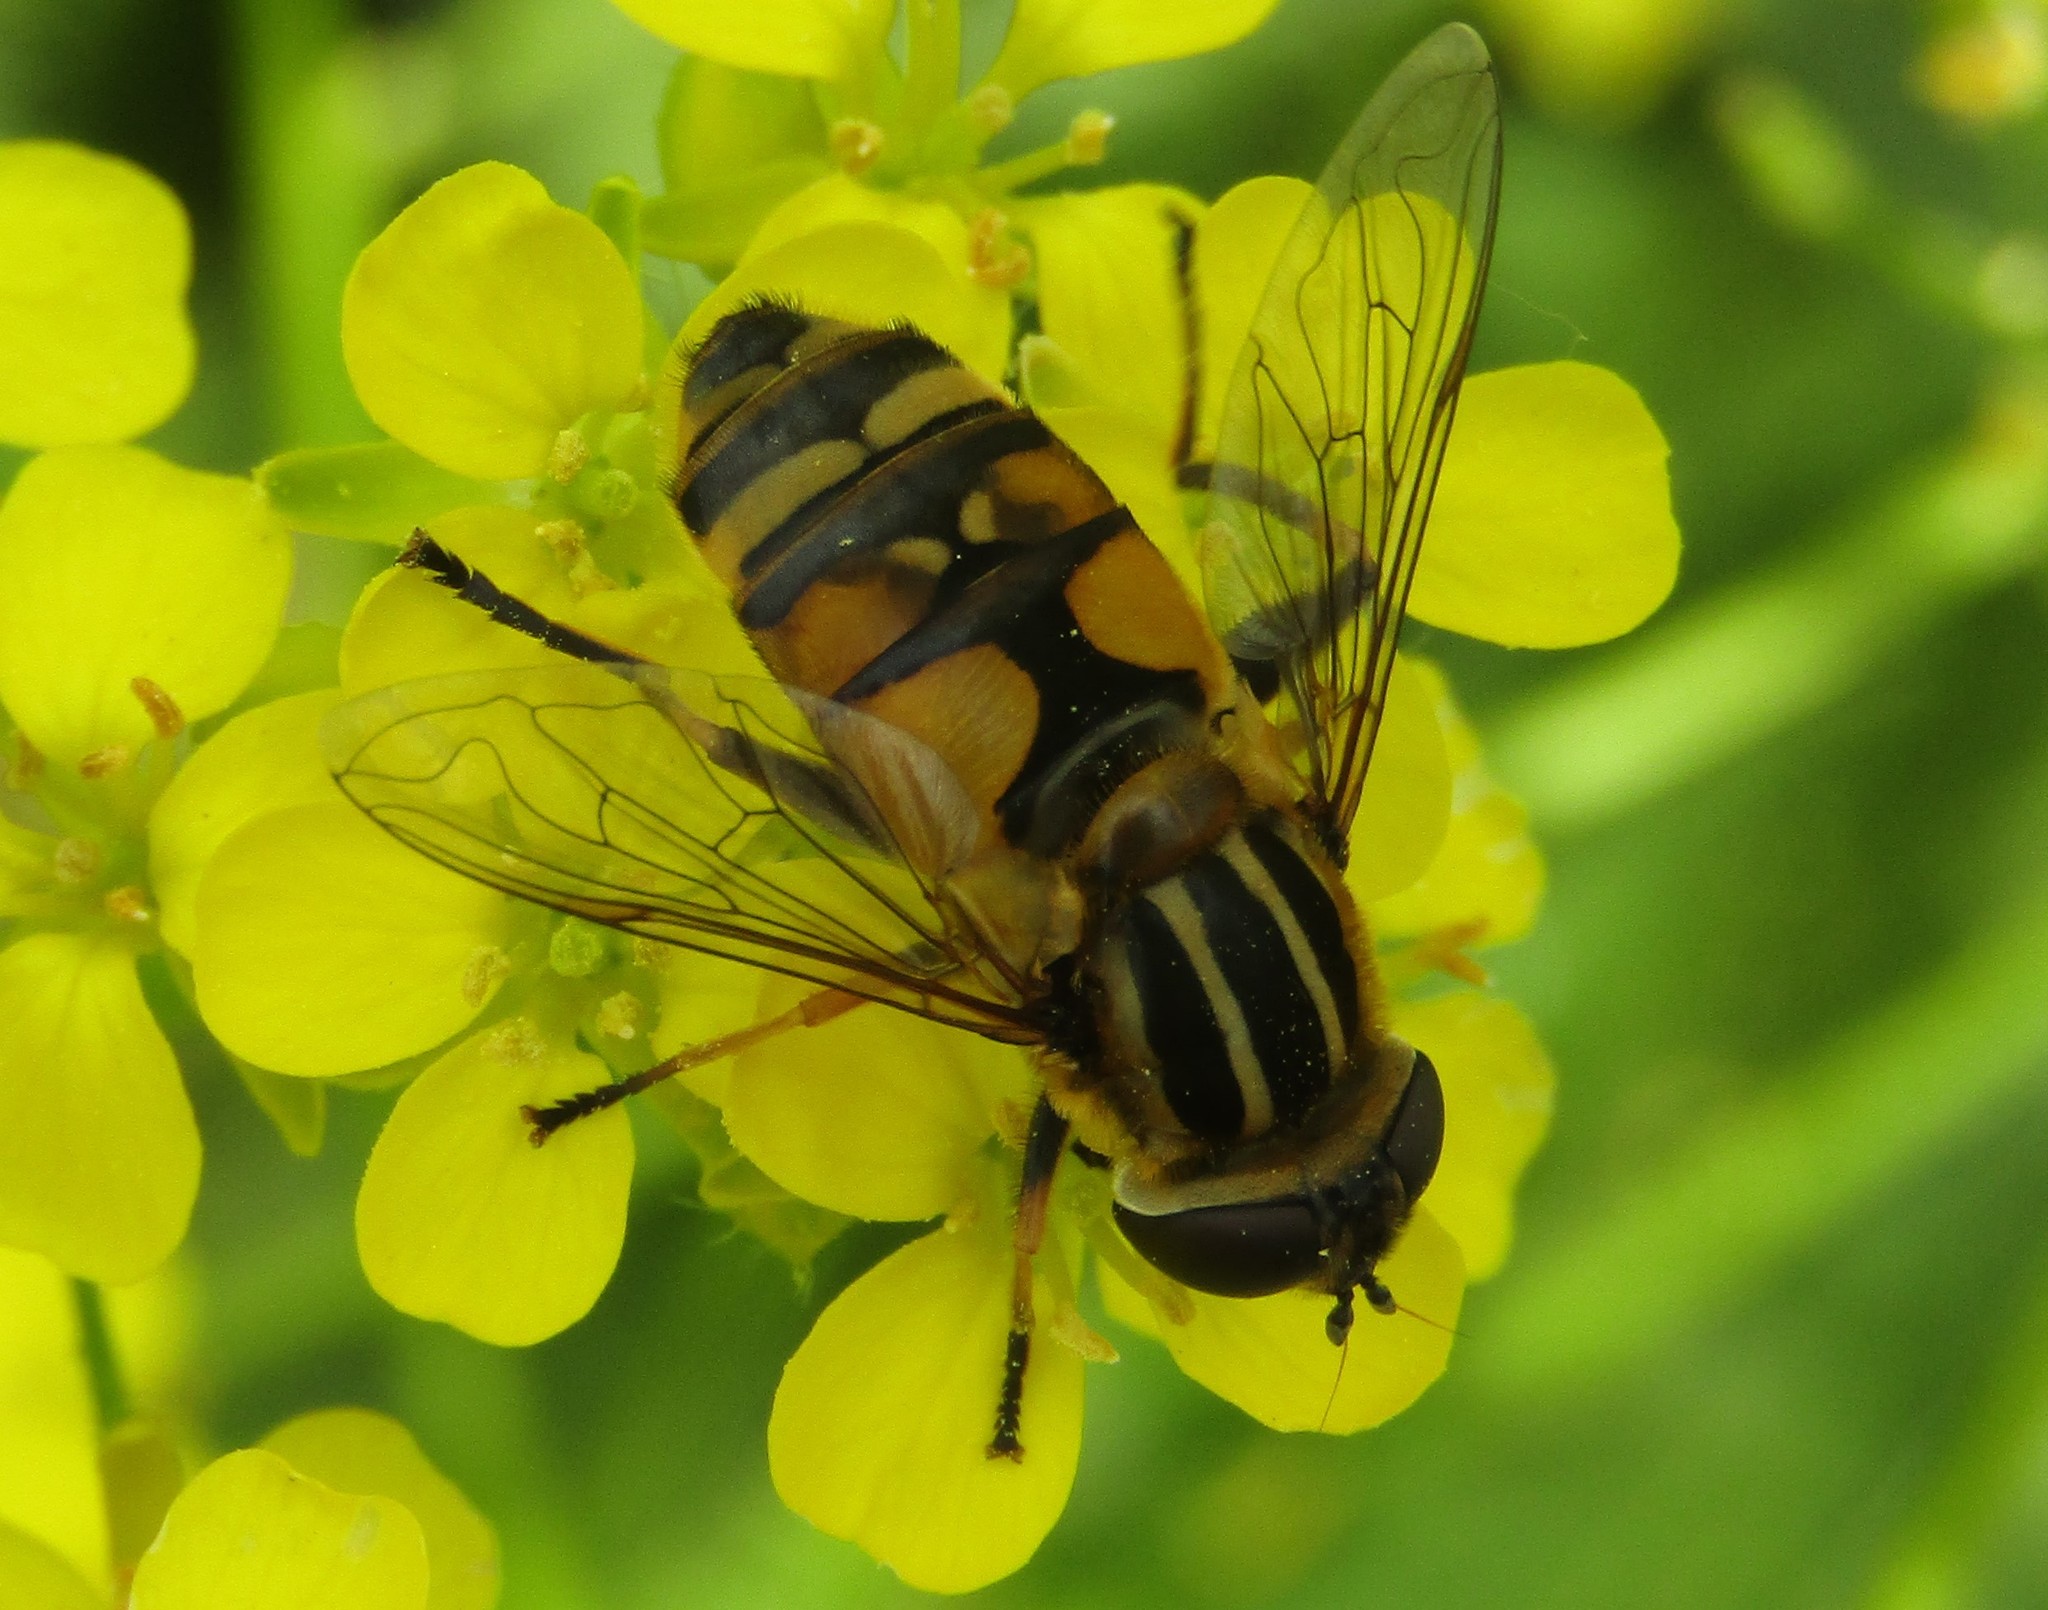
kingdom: Animalia
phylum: Arthropoda
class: Insecta
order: Diptera
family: Syrphidae
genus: Helophilus
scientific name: Helophilus hybridus
